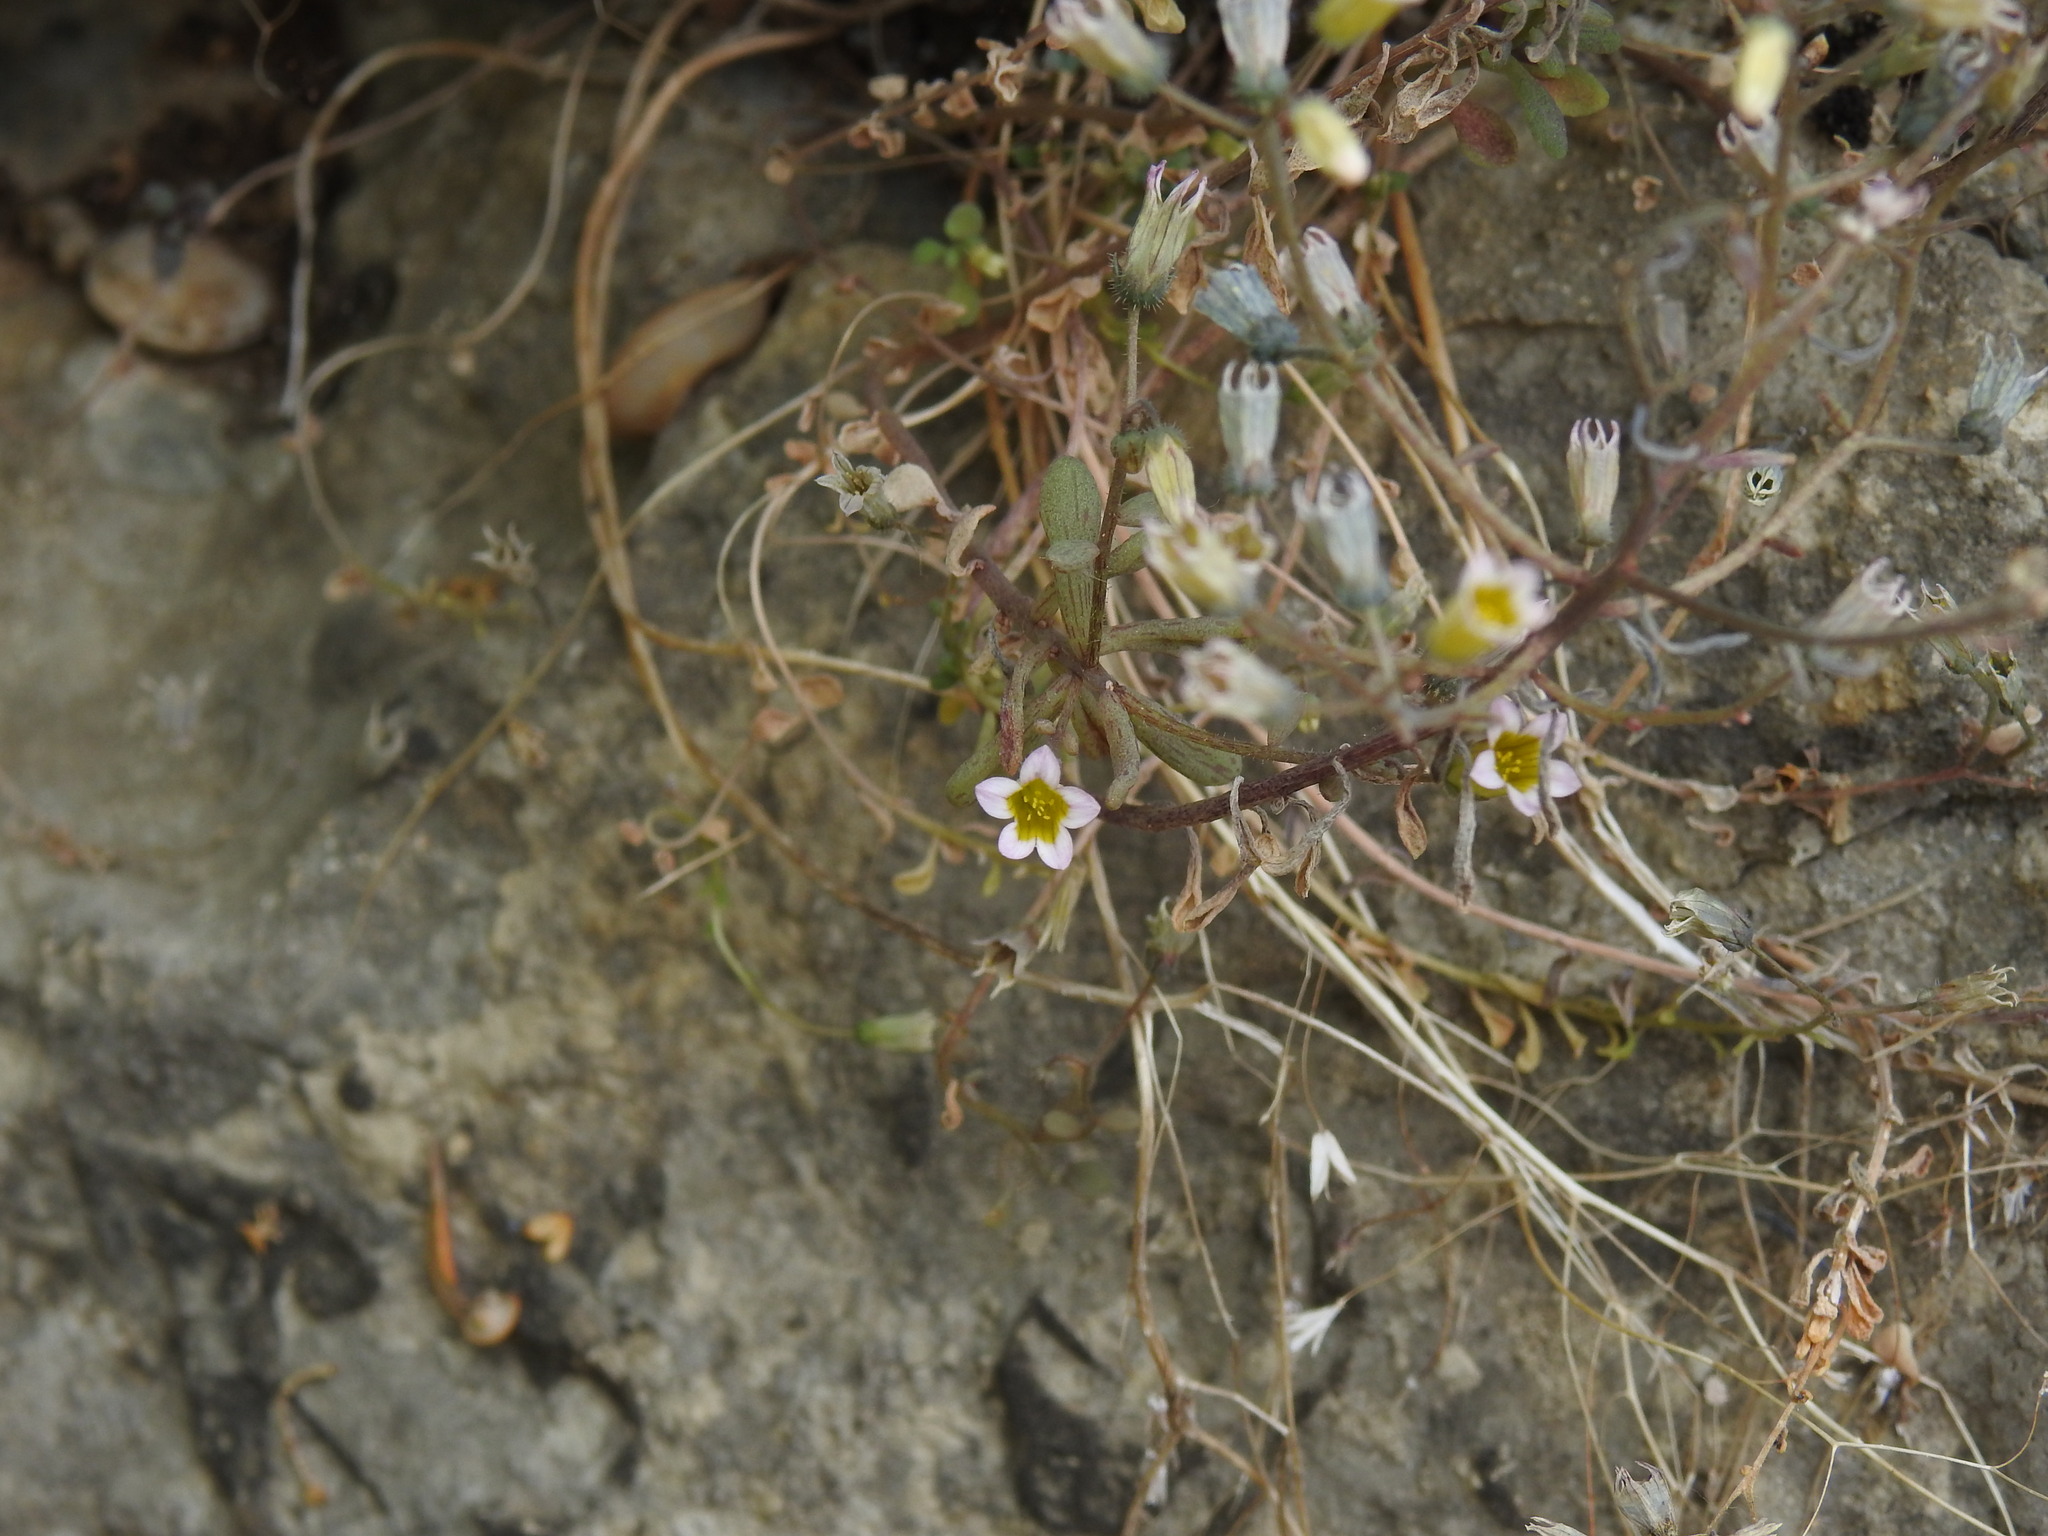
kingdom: Plantae
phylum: Tracheophyta
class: Magnoliopsida
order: Saxifragales
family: Crassulaceae
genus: Sedum
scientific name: Sedum mucizonia
